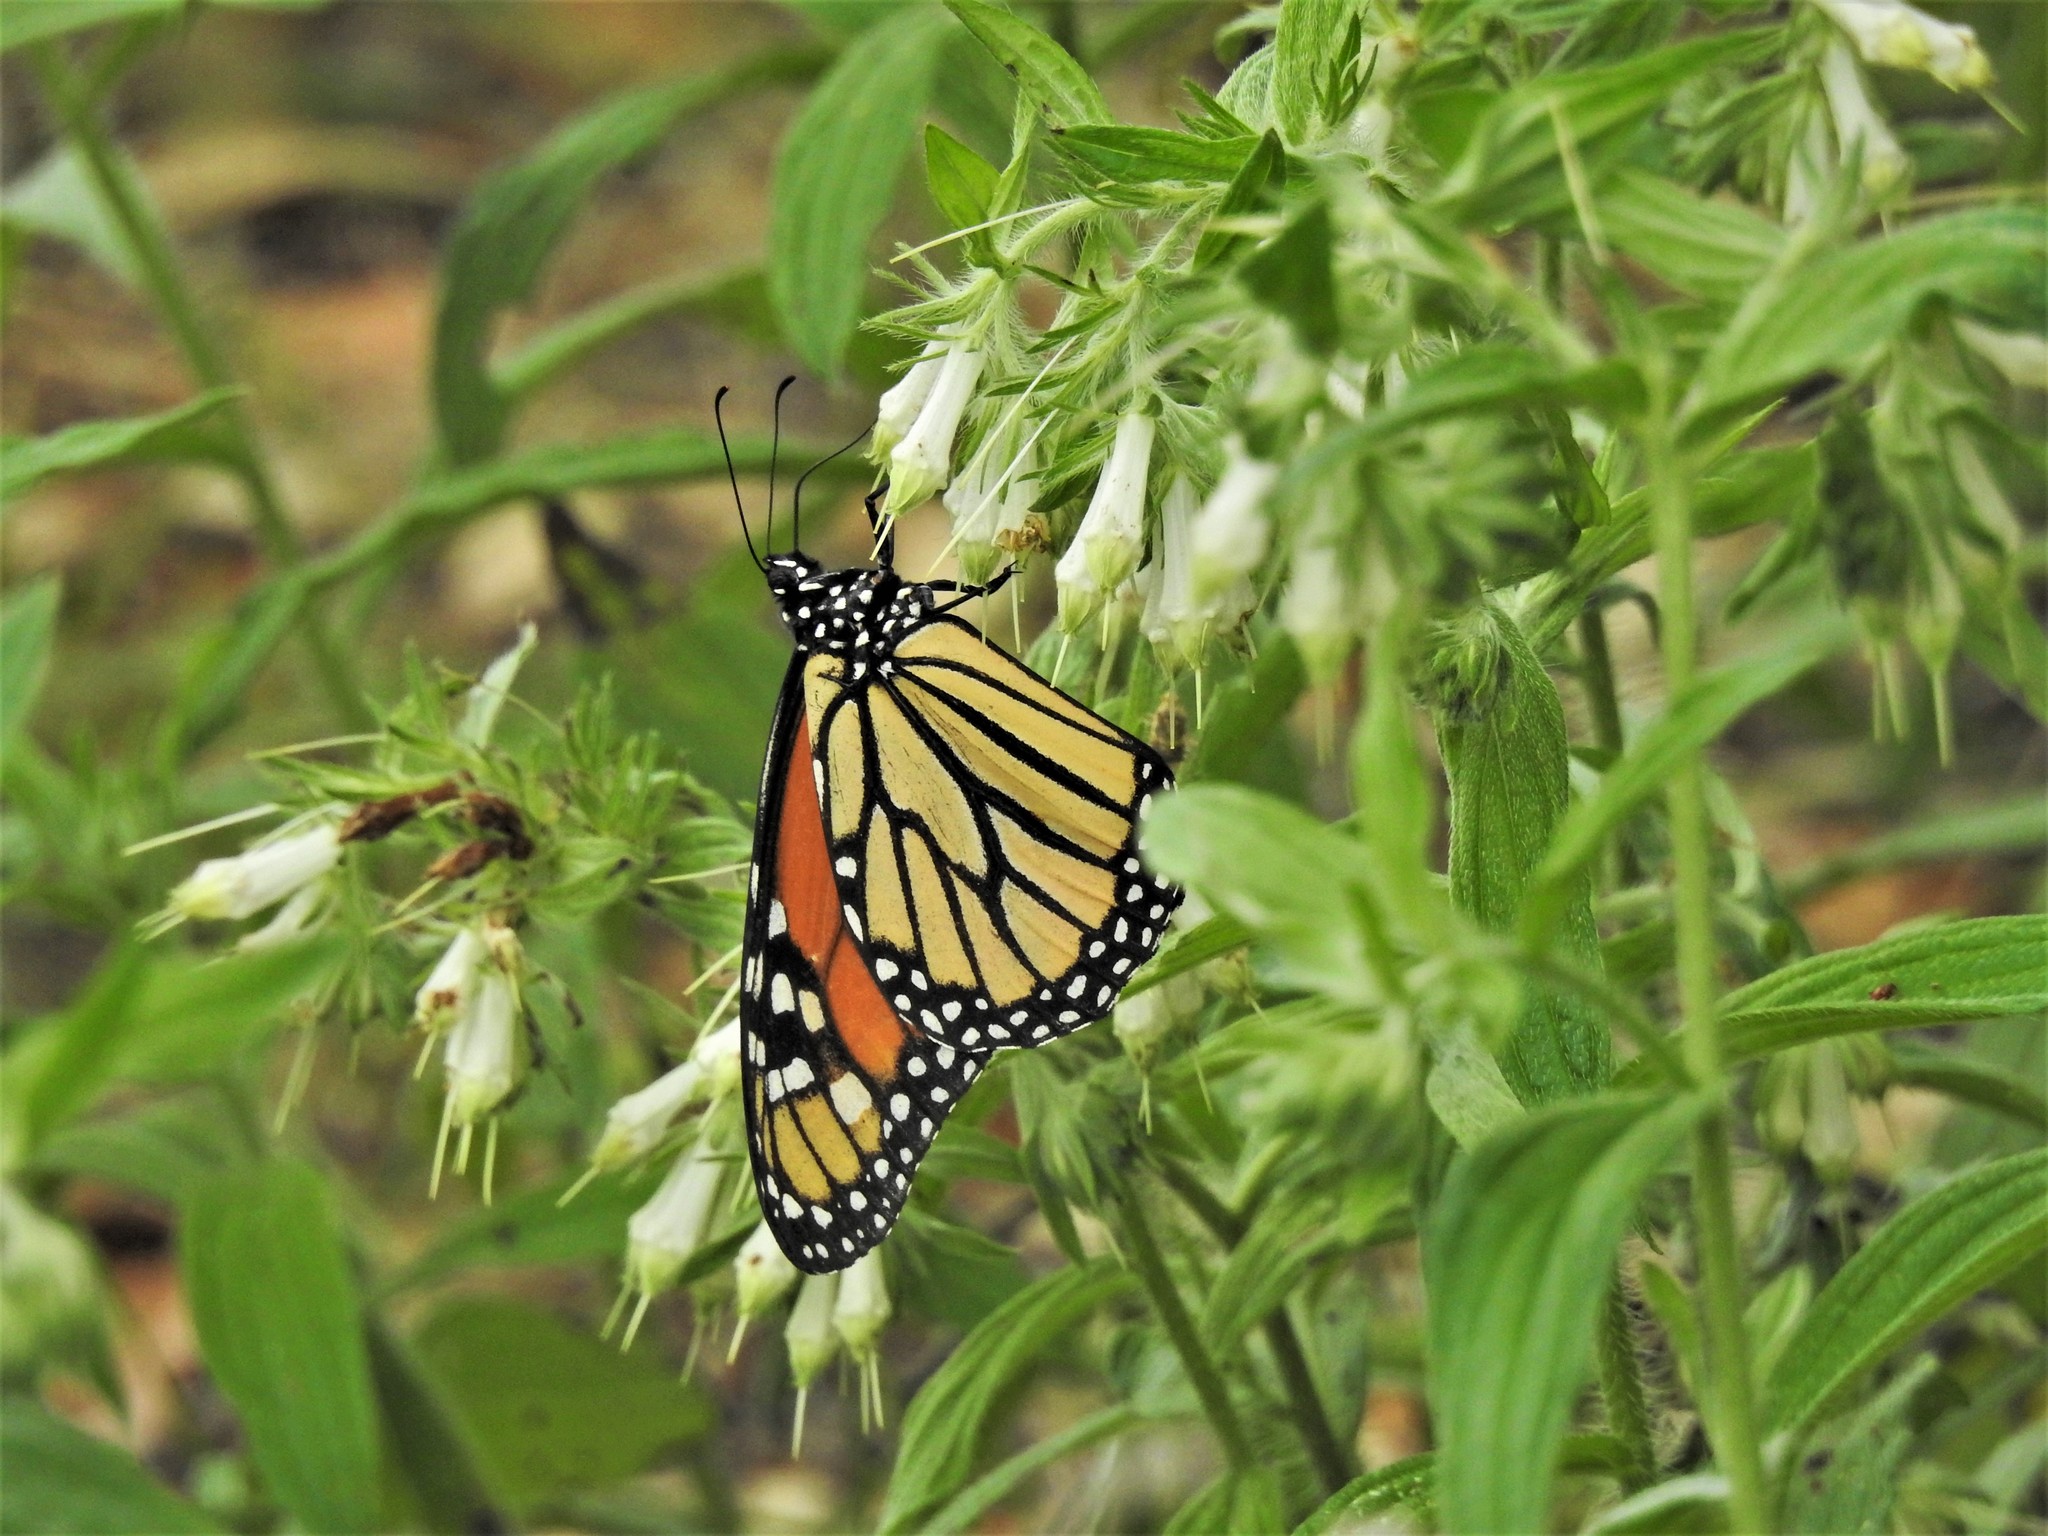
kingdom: Animalia
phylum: Arthropoda
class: Insecta
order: Lepidoptera
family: Nymphalidae
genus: Danaus
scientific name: Danaus plexippus
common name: Monarch
